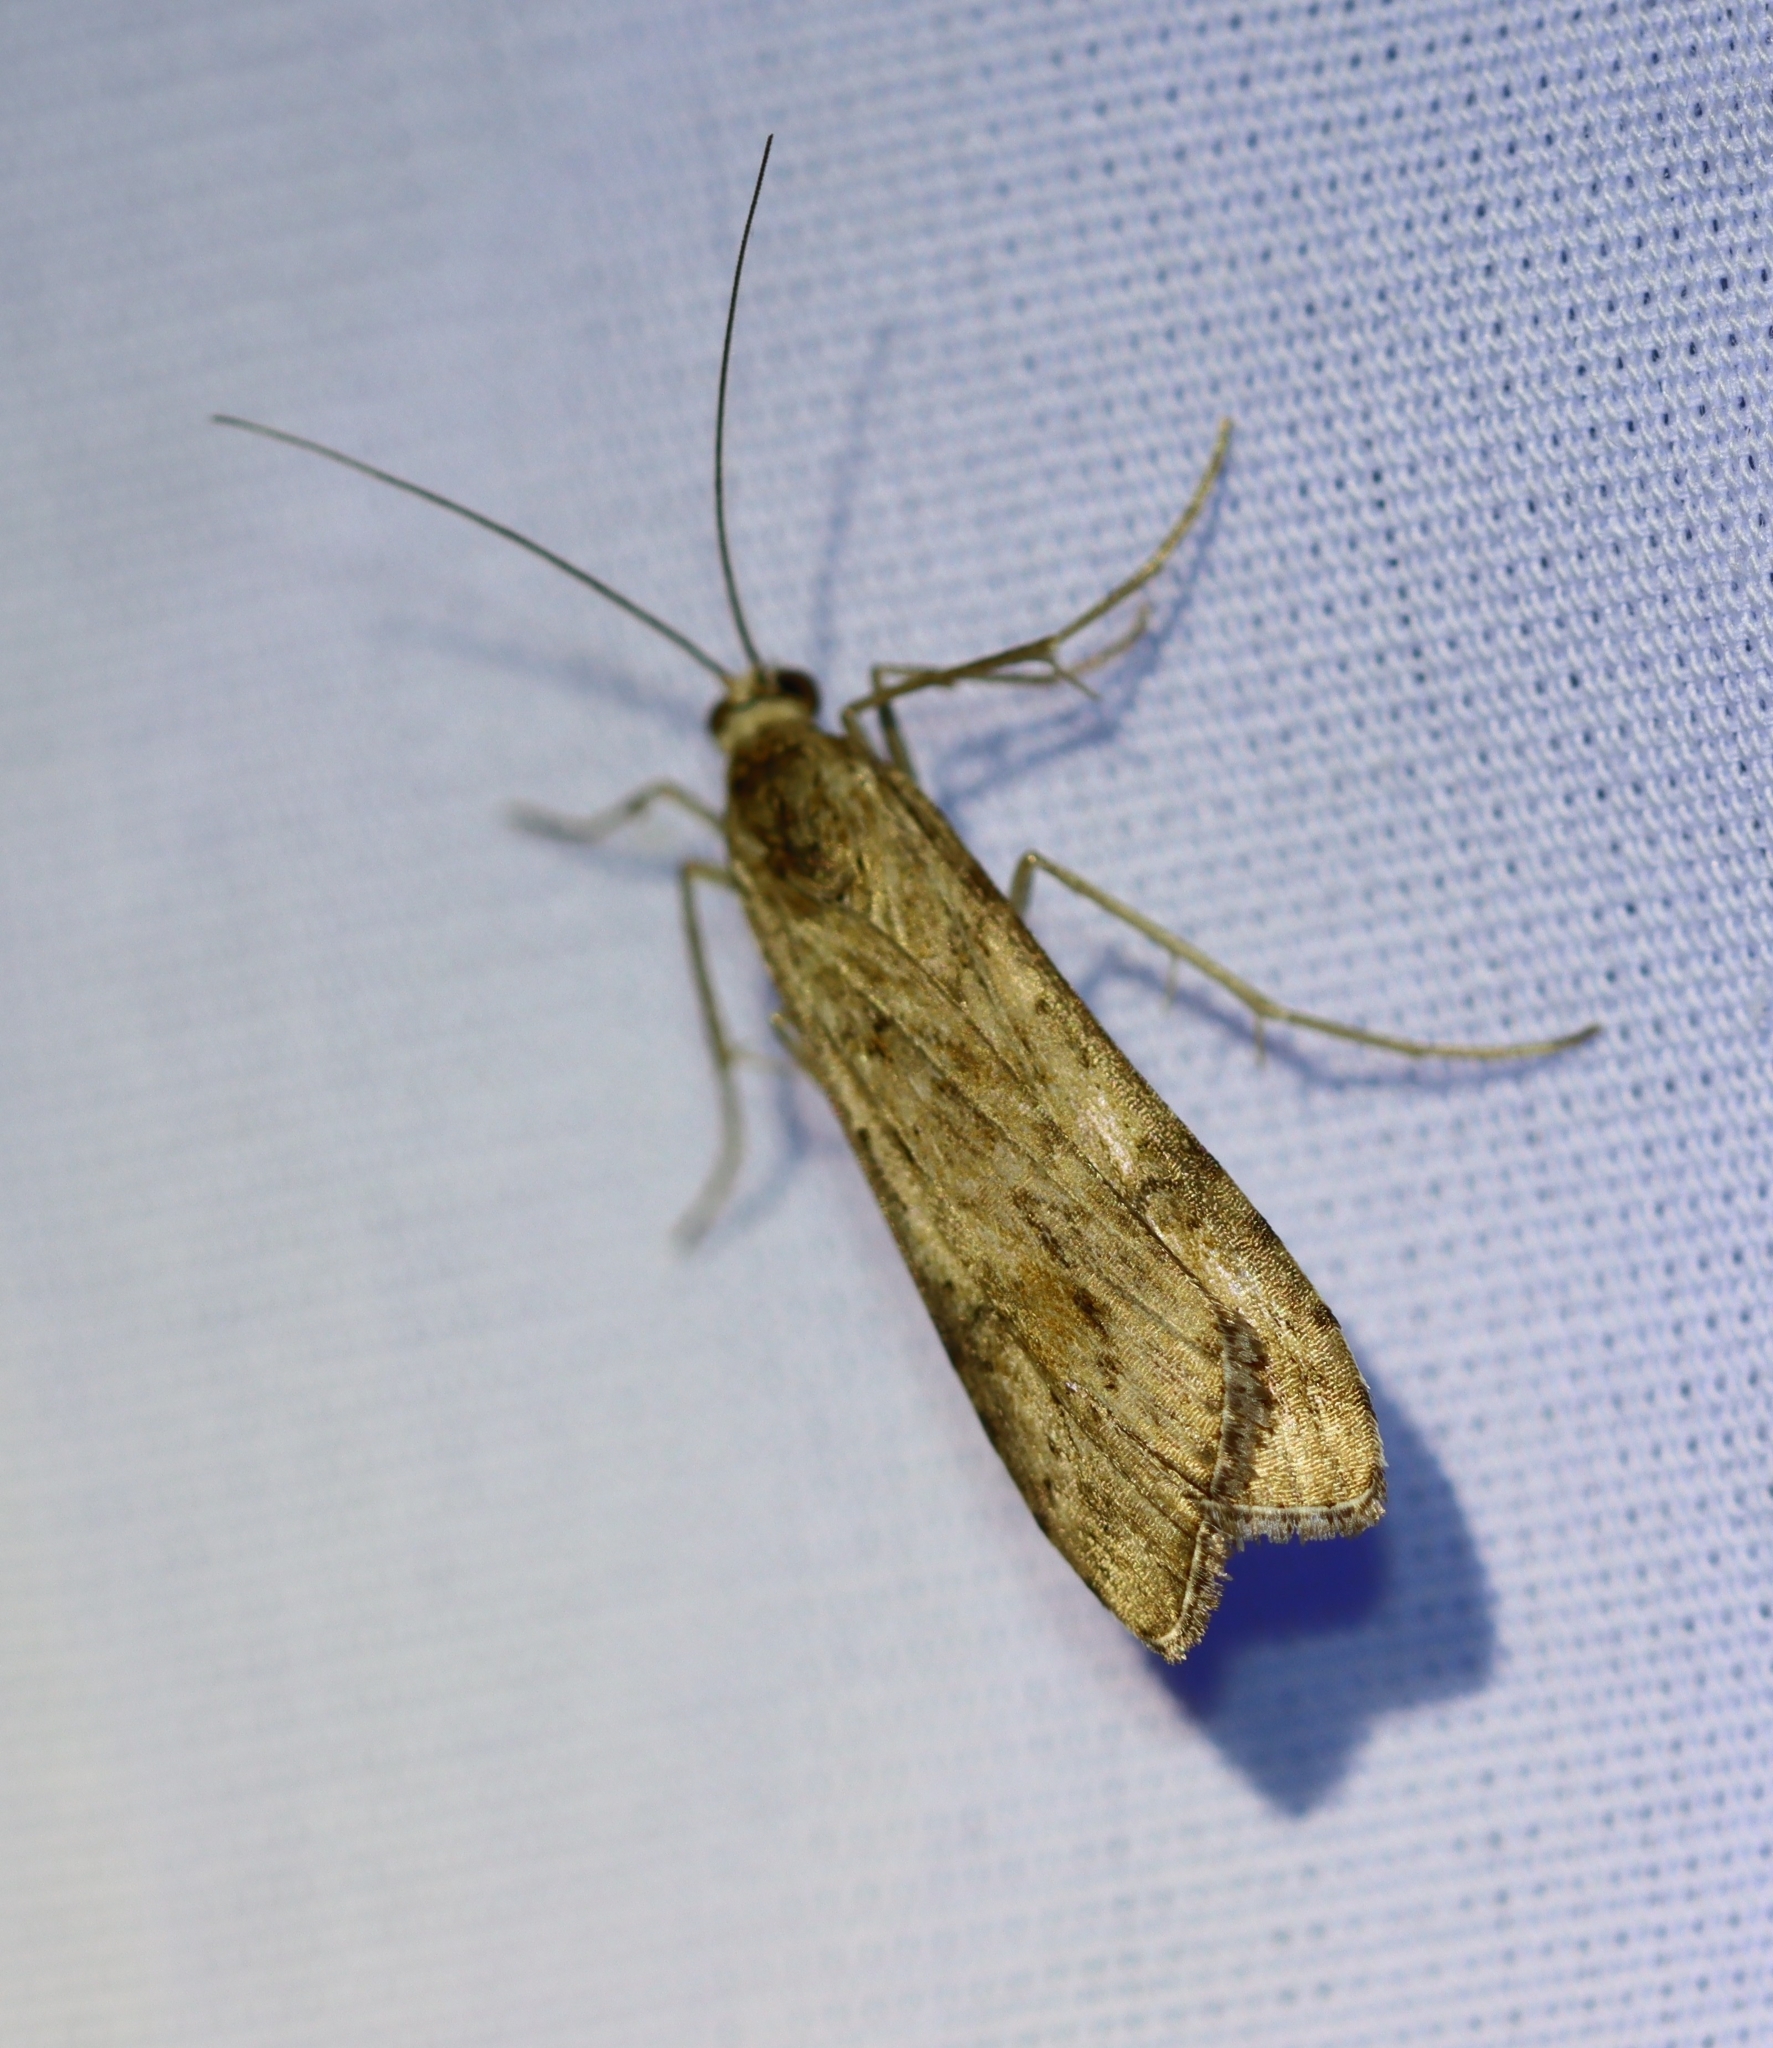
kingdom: Animalia
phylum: Arthropoda
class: Insecta
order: Lepidoptera
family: Crambidae
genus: Nomophila
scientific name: Nomophila nearctica
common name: American rush veneer
